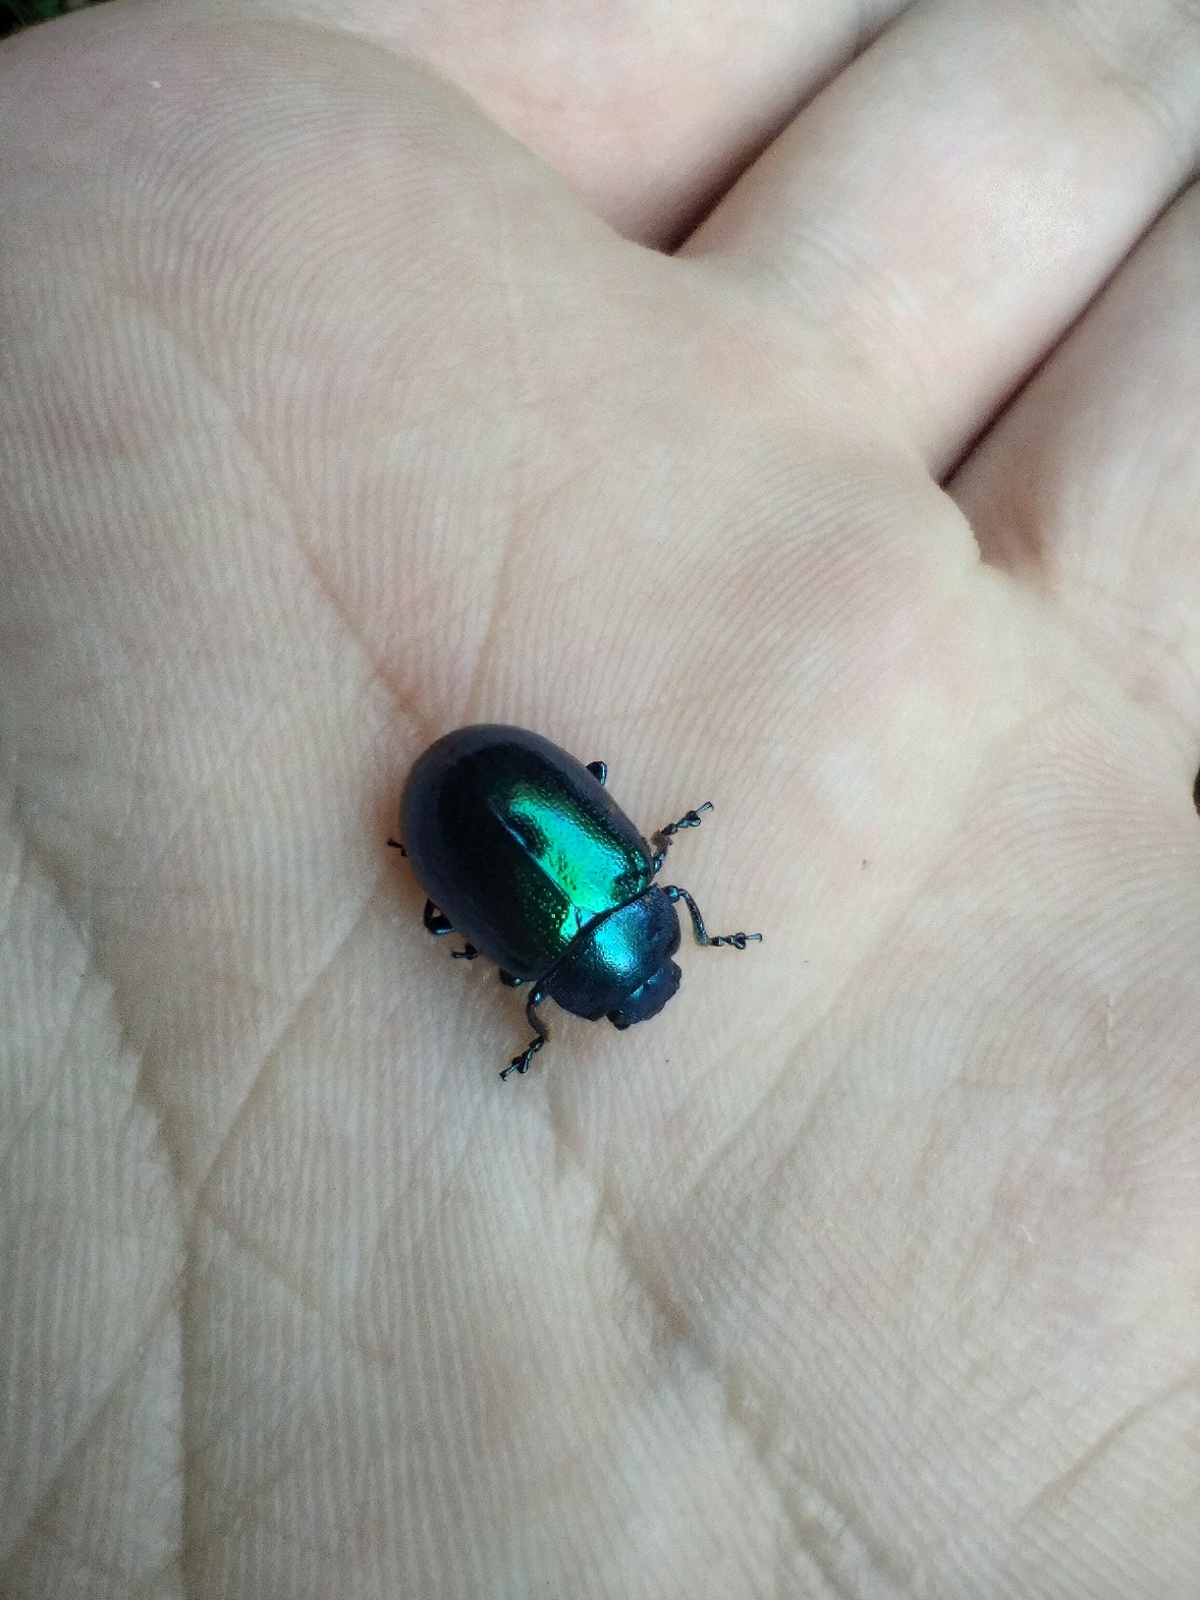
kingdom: Animalia
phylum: Arthropoda
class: Insecta
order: Coleoptera
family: Chrysomelidae
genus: Chrysolina
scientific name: Chrysolina coerulans
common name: Blue mint beetle
